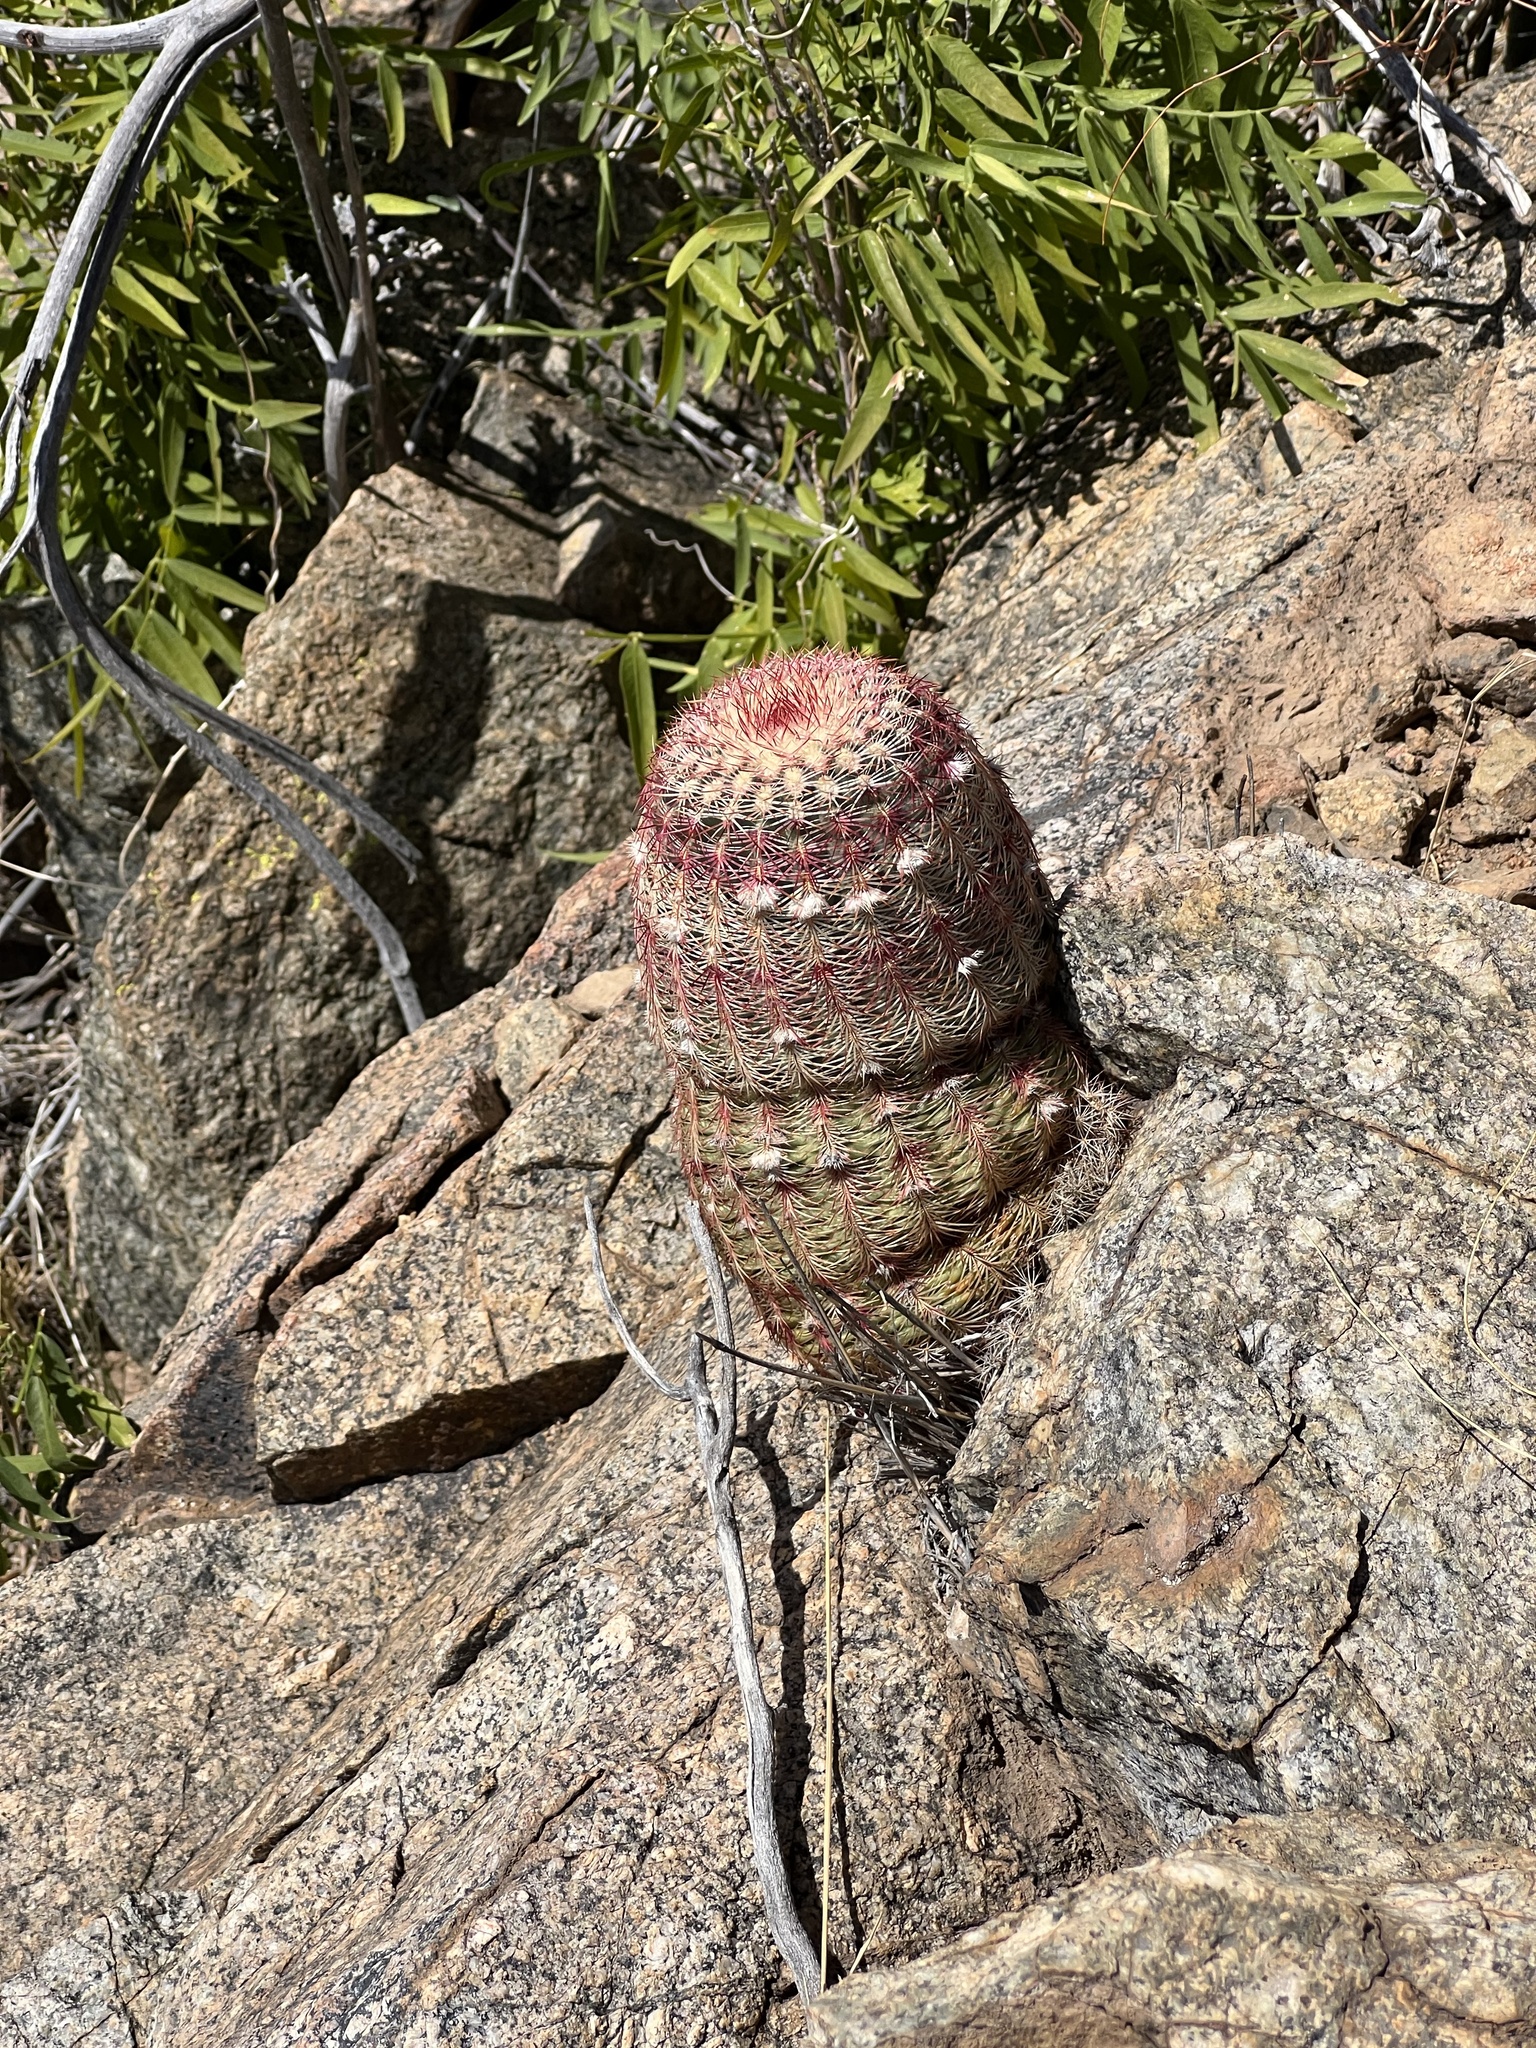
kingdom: Plantae
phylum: Tracheophyta
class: Magnoliopsida
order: Caryophyllales
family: Cactaceae
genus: Echinocereus
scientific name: Echinocereus rigidissimus
